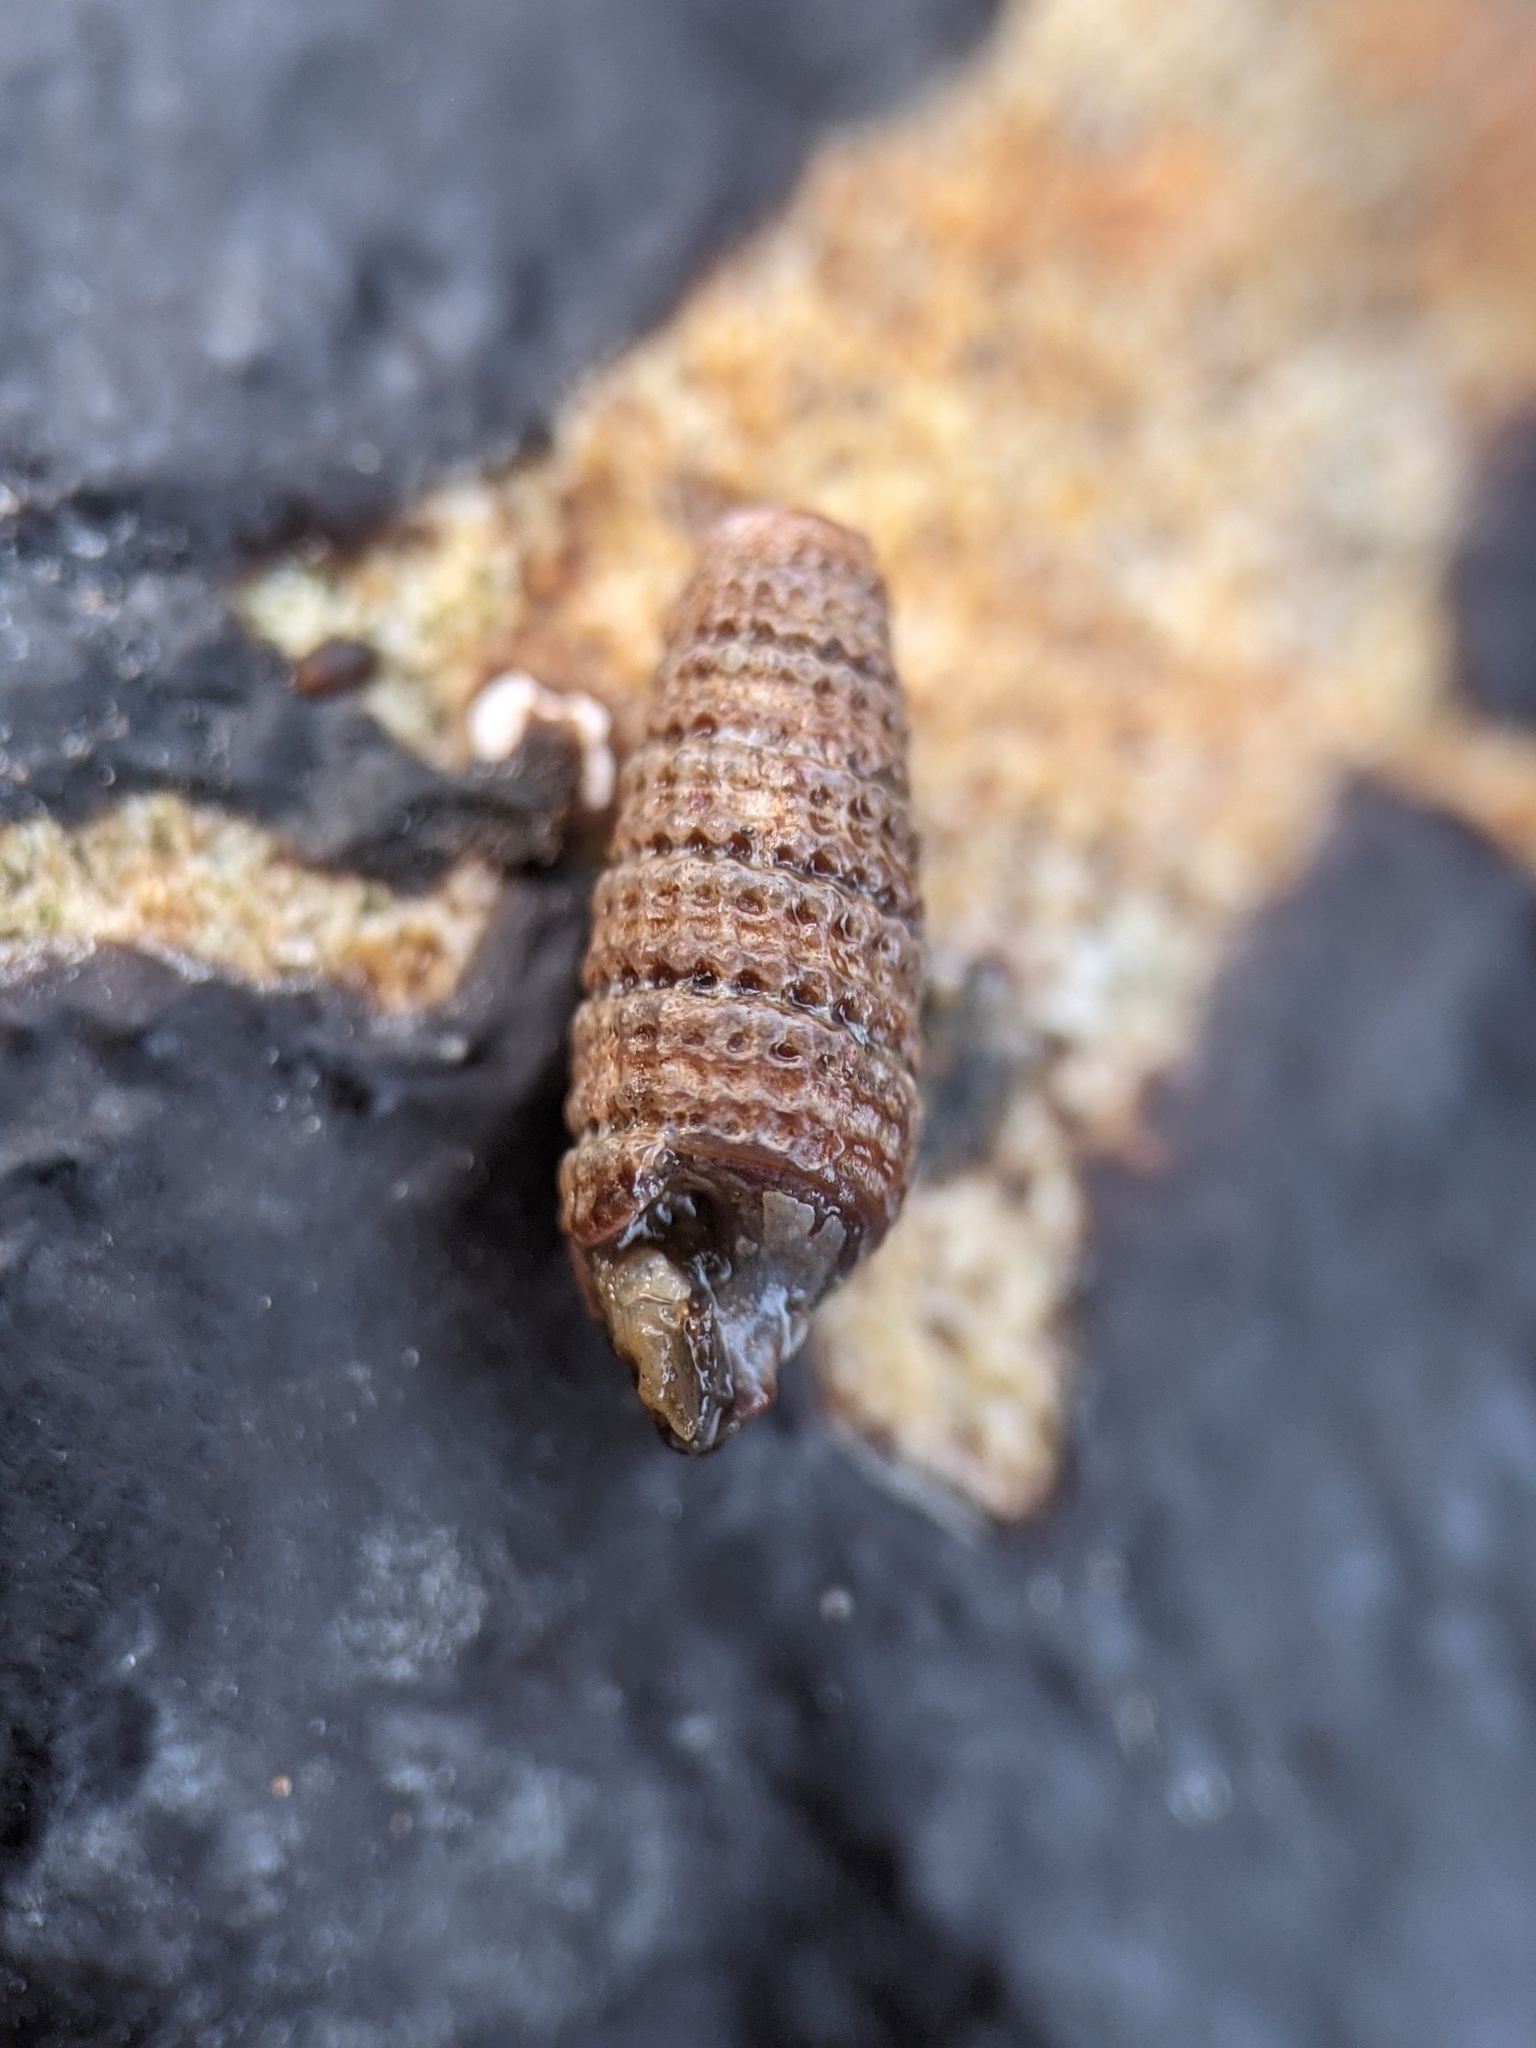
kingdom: Animalia
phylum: Mollusca
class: Gastropoda
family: Triphoridae
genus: Triphora
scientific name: Triphora pedroana
